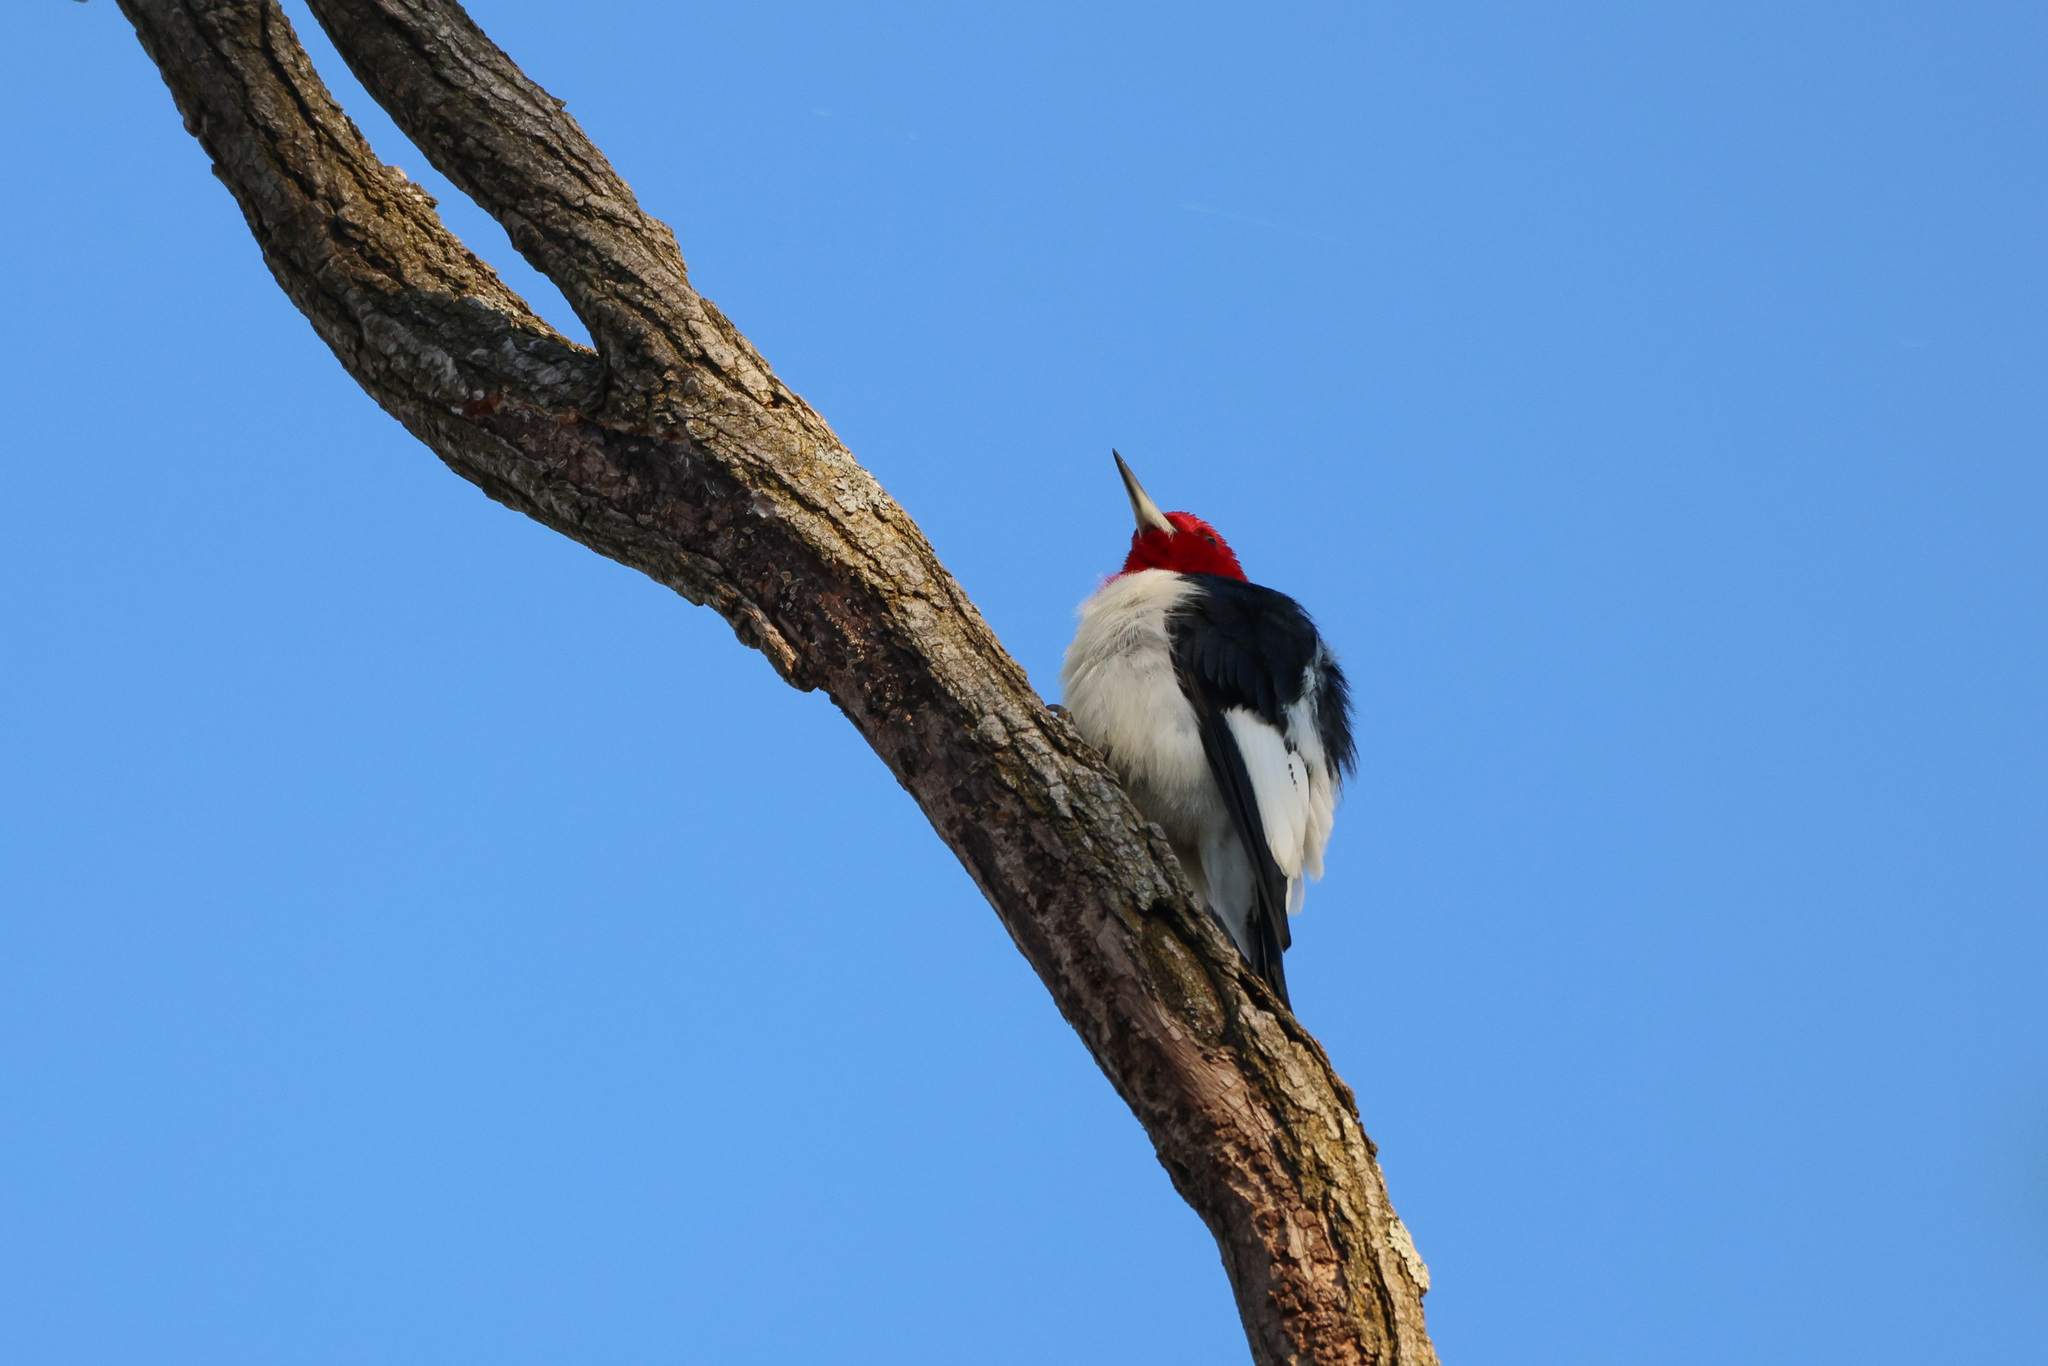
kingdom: Animalia
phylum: Chordata
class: Aves
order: Piciformes
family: Picidae
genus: Melanerpes
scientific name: Melanerpes erythrocephalus
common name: Red-headed woodpecker
